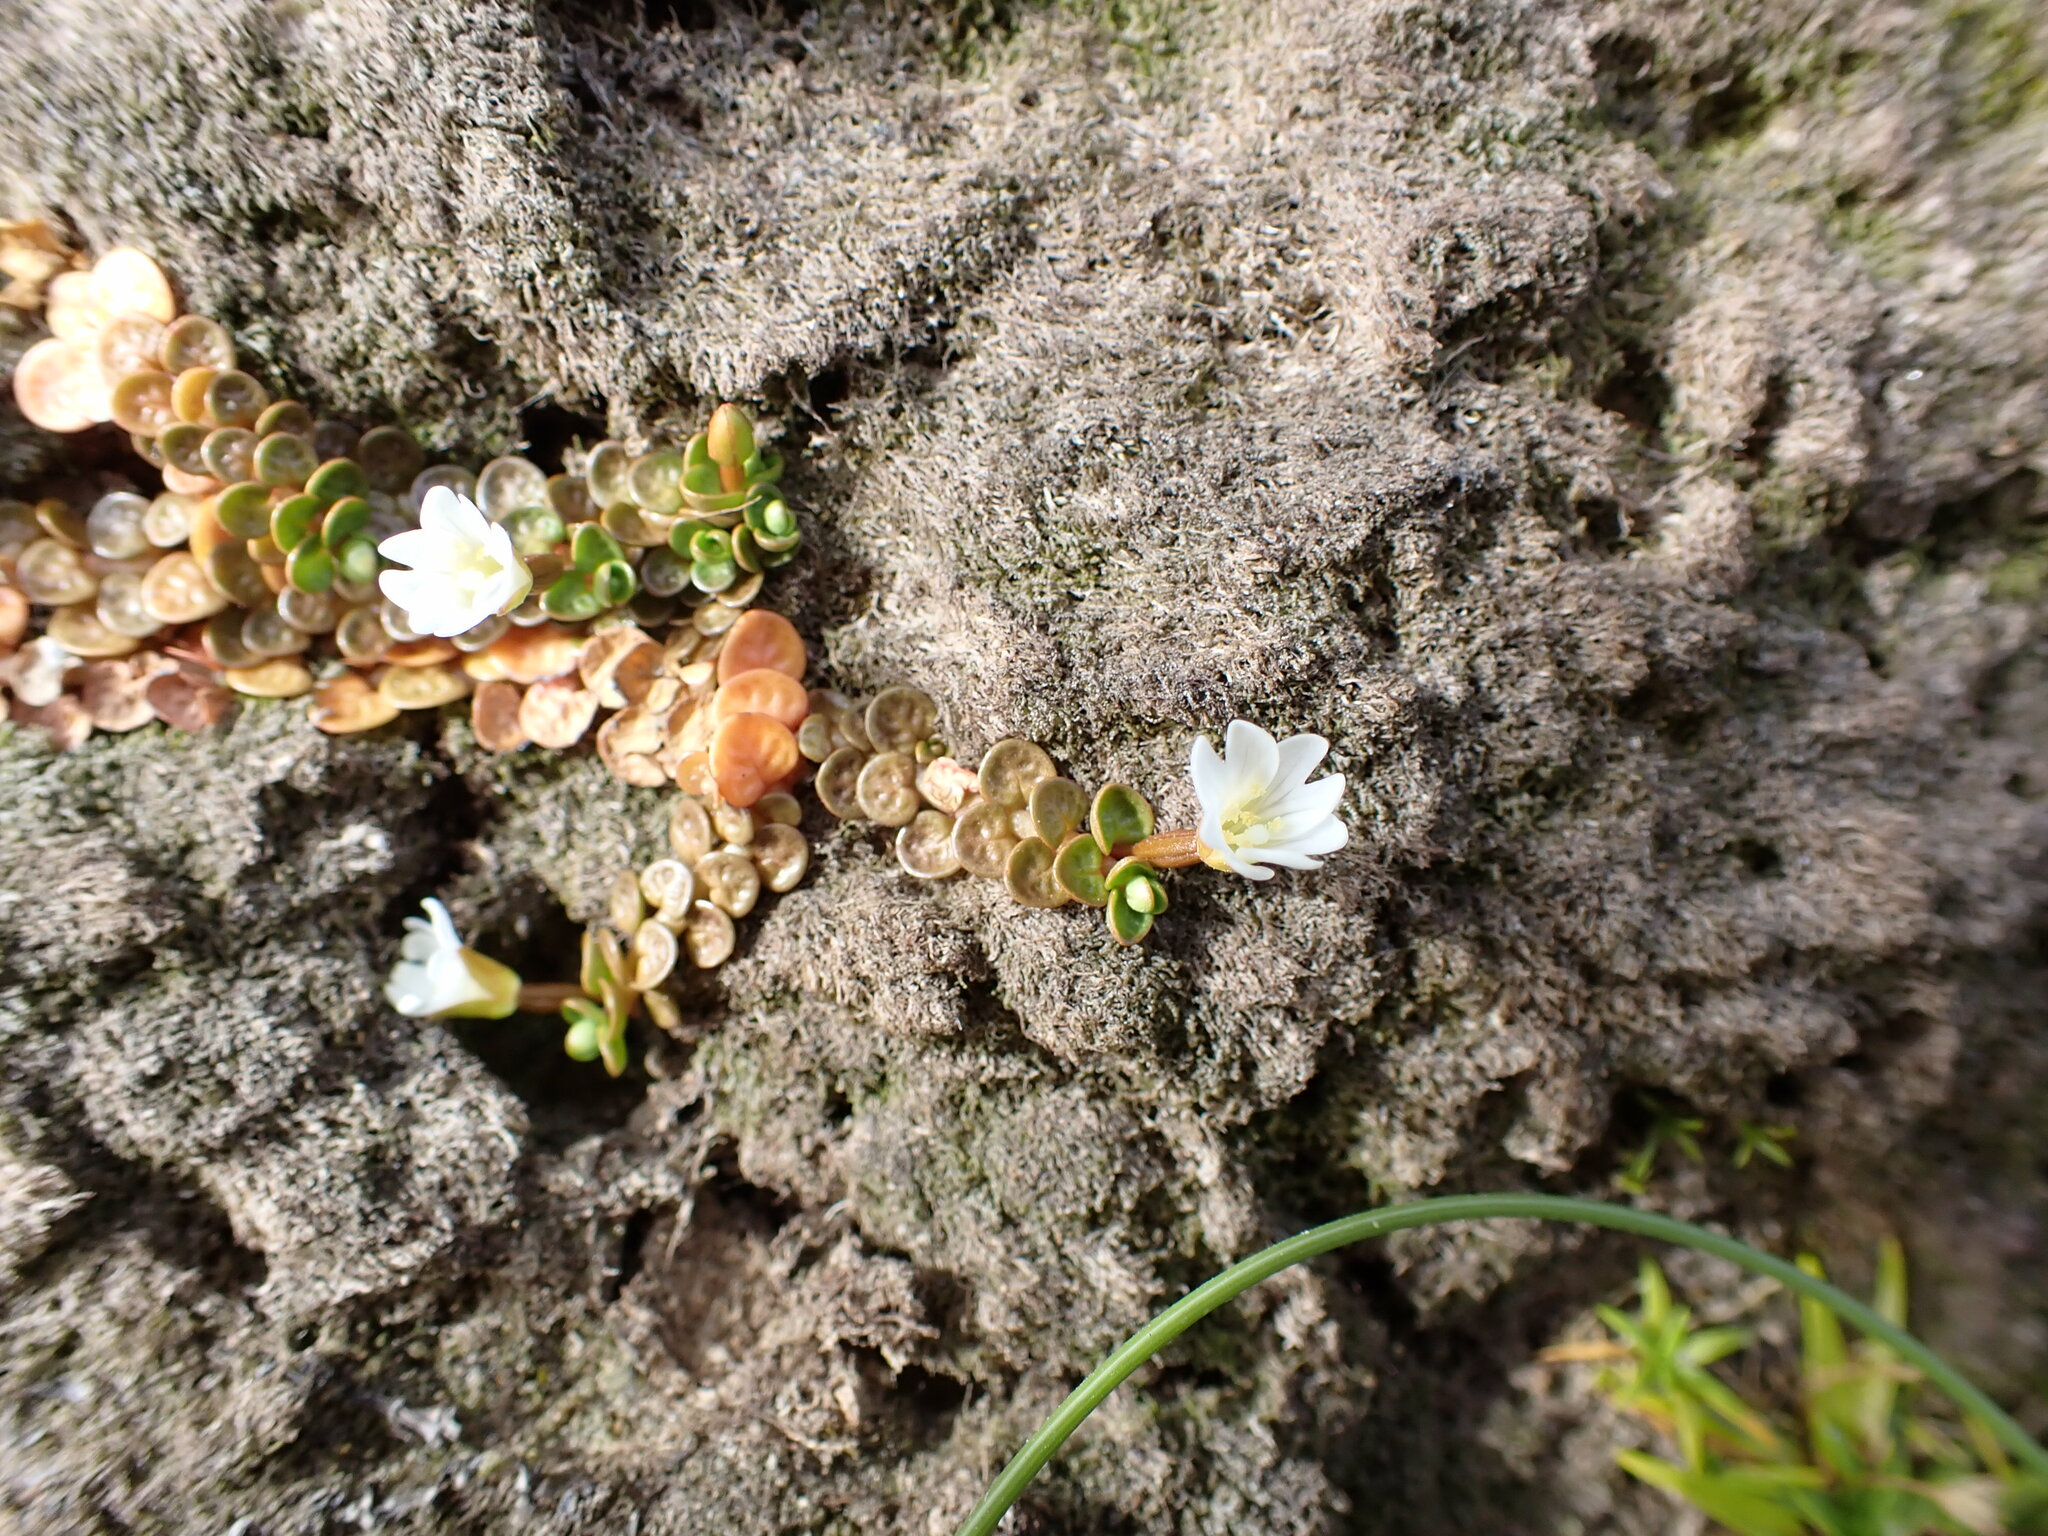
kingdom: Plantae
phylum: Tracheophyta
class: Magnoliopsida
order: Myrtales
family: Onagraceae
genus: Epilobium
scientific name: Epilobium komarovianum
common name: Bronzy willowherb
